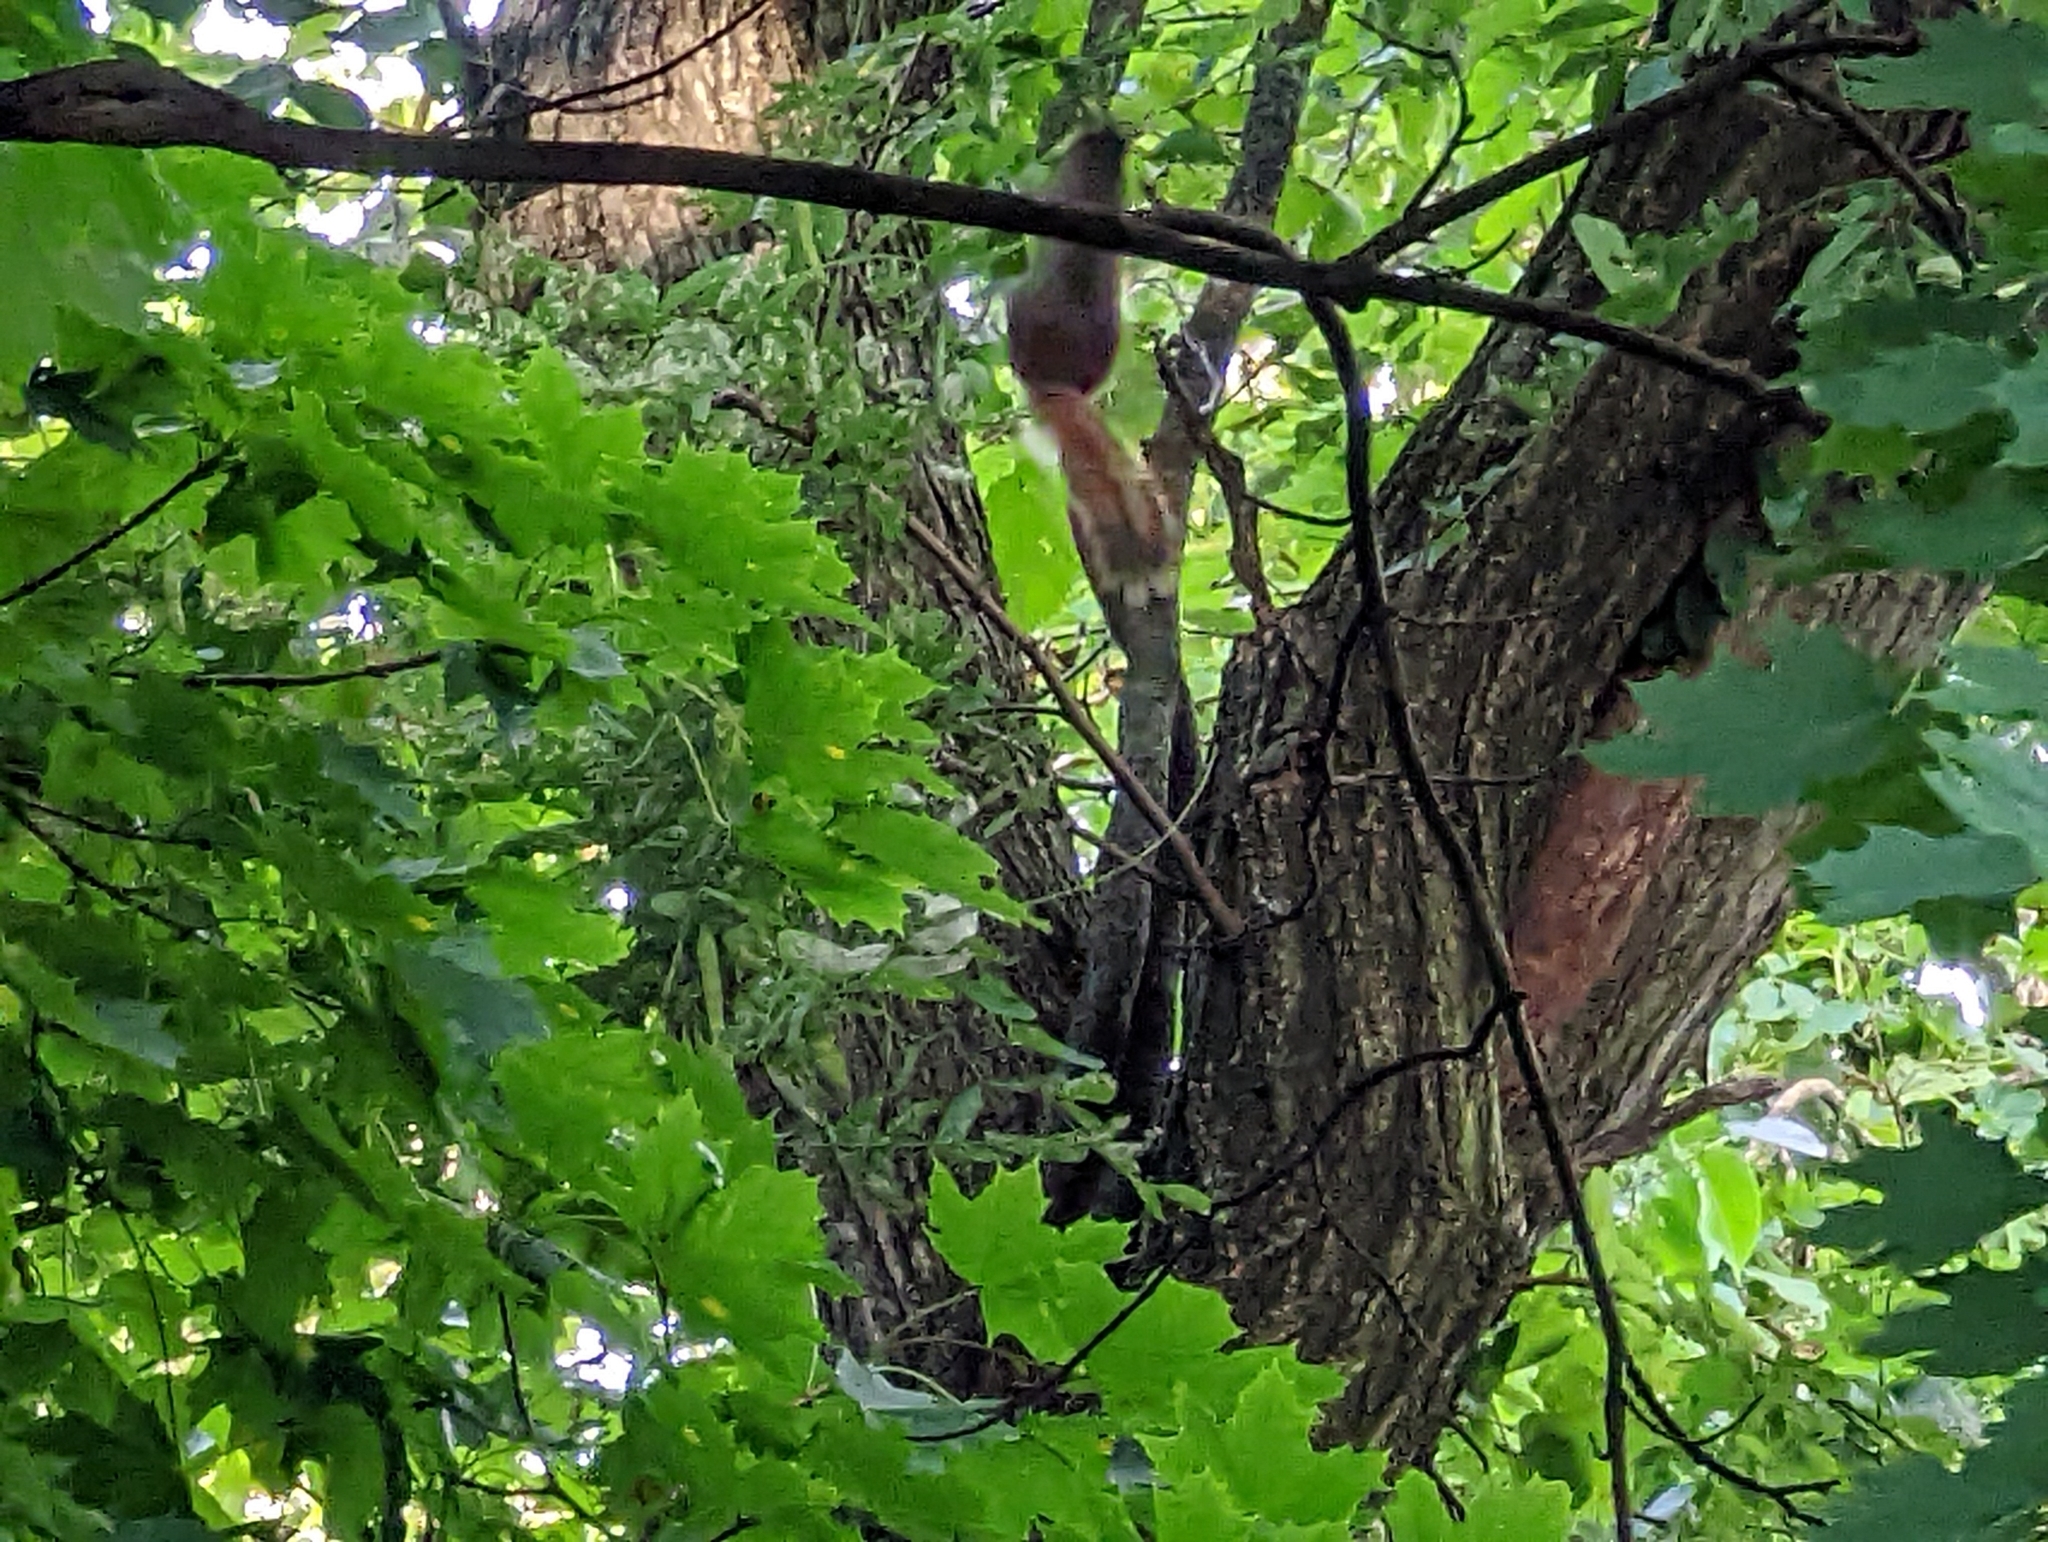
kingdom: Animalia
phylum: Chordata
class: Mammalia
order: Rodentia
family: Sciuridae
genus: Tamiasciurus
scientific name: Tamiasciurus hudsonicus
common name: Red squirrel
